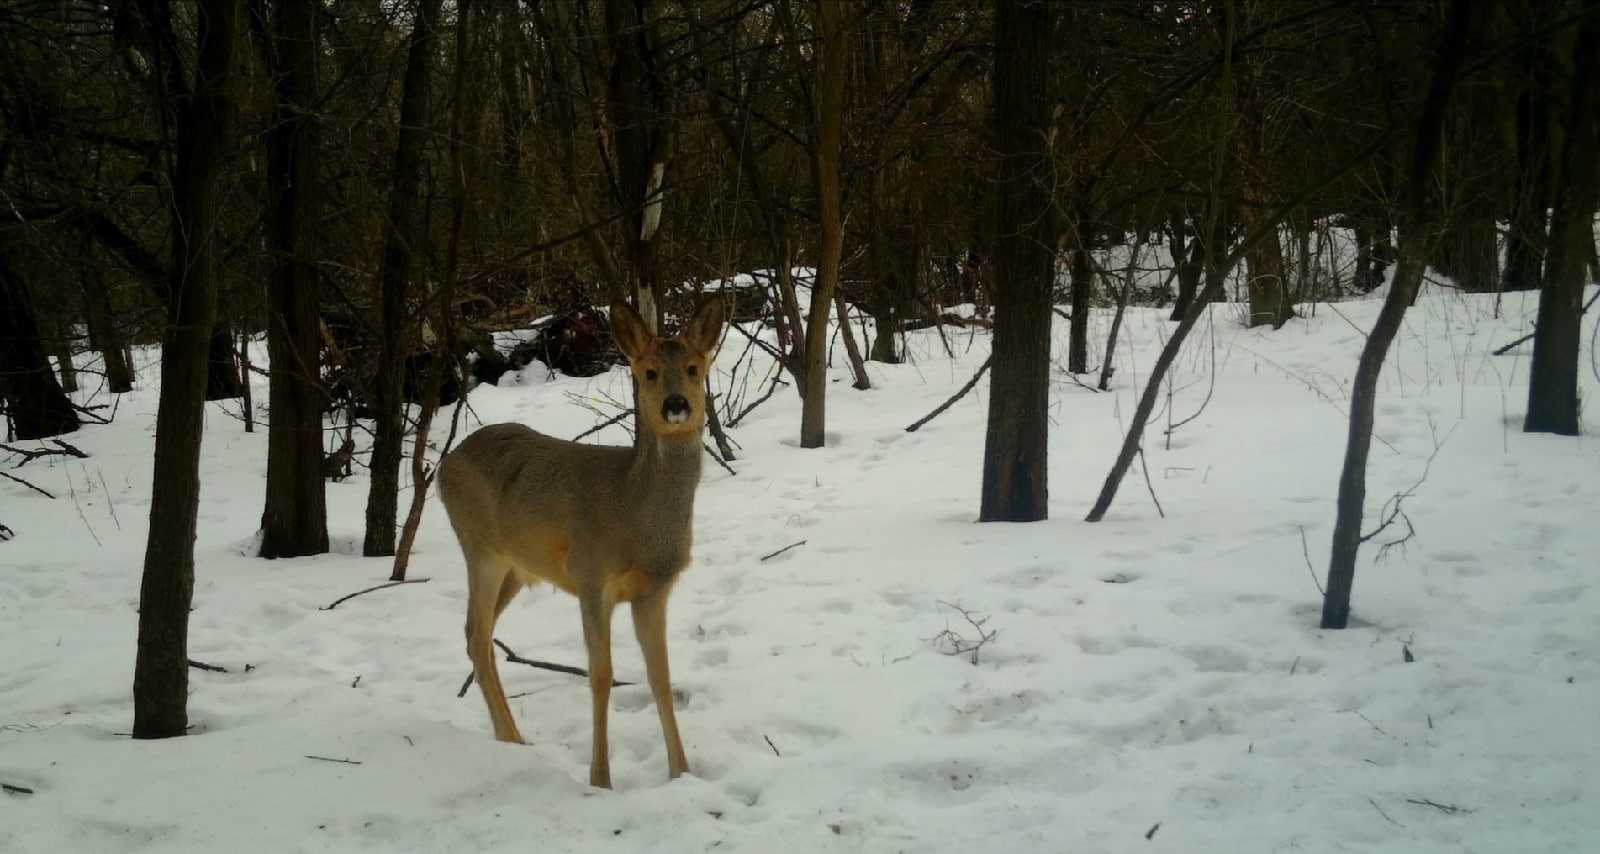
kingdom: Animalia
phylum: Chordata
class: Mammalia
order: Artiodactyla
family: Cervidae
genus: Capreolus
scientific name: Capreolus pygargus
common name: Siberian roe
